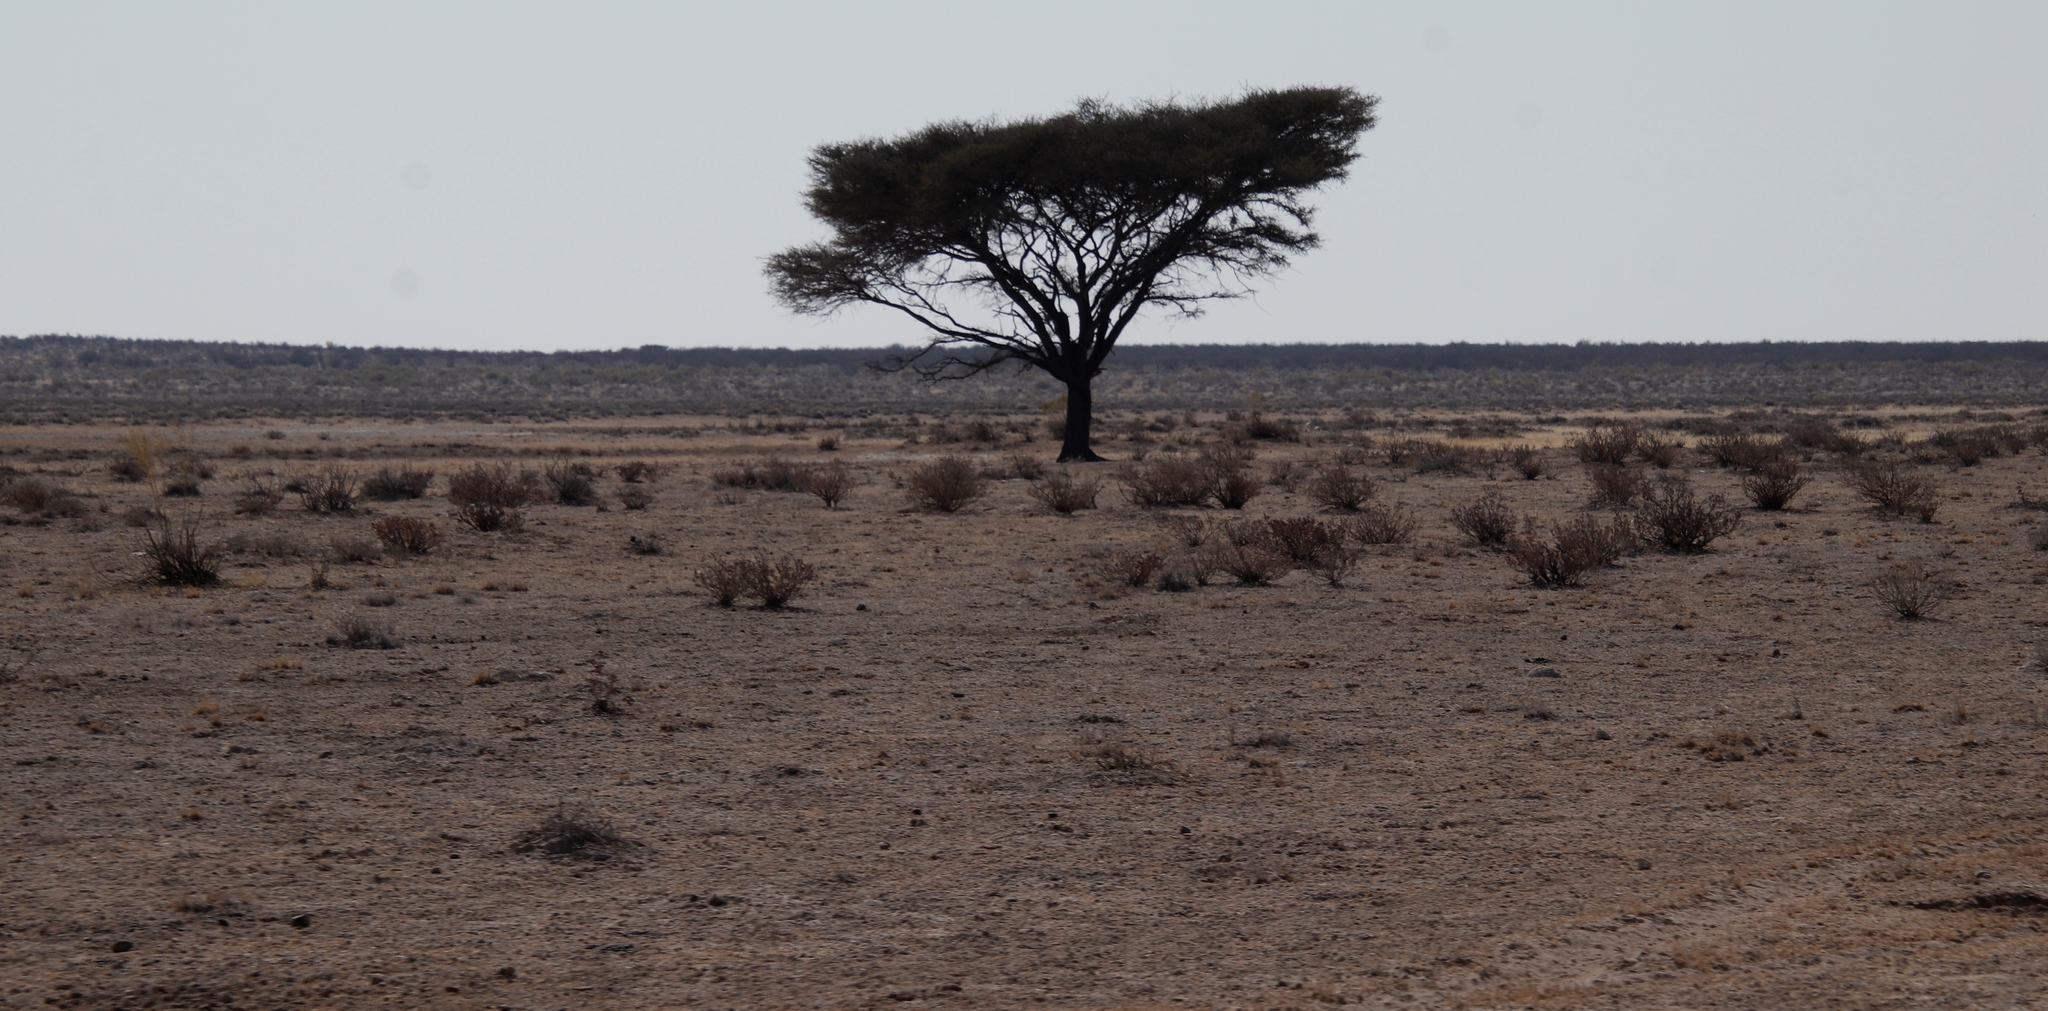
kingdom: Plantae
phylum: Tracheophyta
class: Magnoliopsida
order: Fabales
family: Fabaceae
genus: Vachellia
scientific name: Vachellia tortilis
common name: Umbrella thorn acacia
